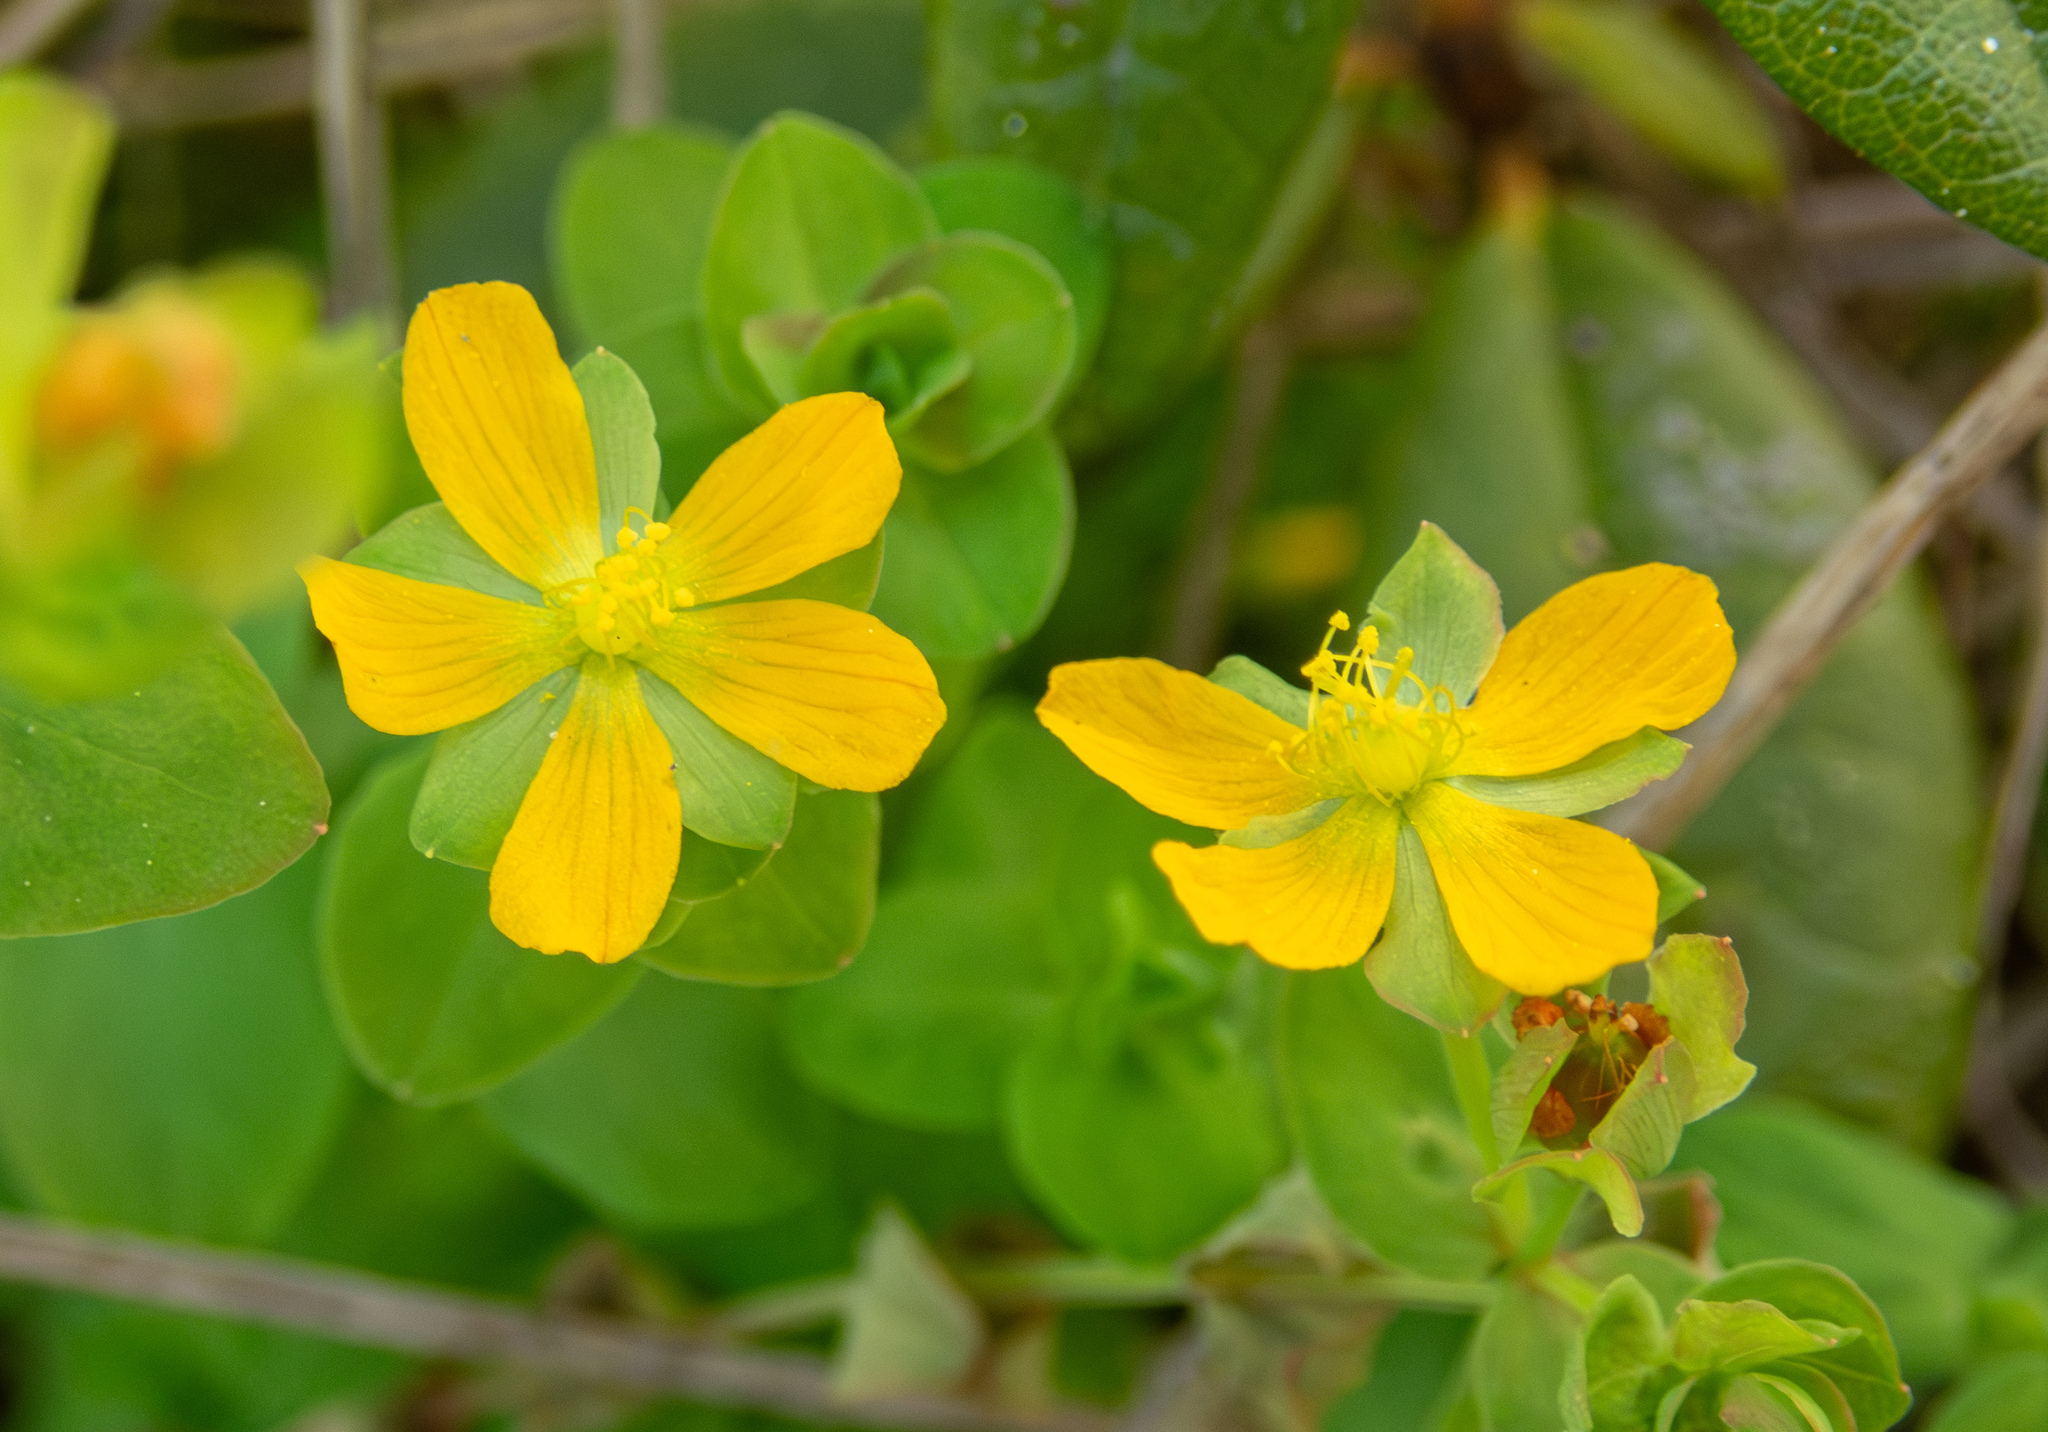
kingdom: Plantae
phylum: Tracheophyta
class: Magnoliopsida
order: Malpighiales
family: Hypericaceae
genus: Hypericum
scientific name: Hypericum anagalloides
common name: Bog st. john's-wort
